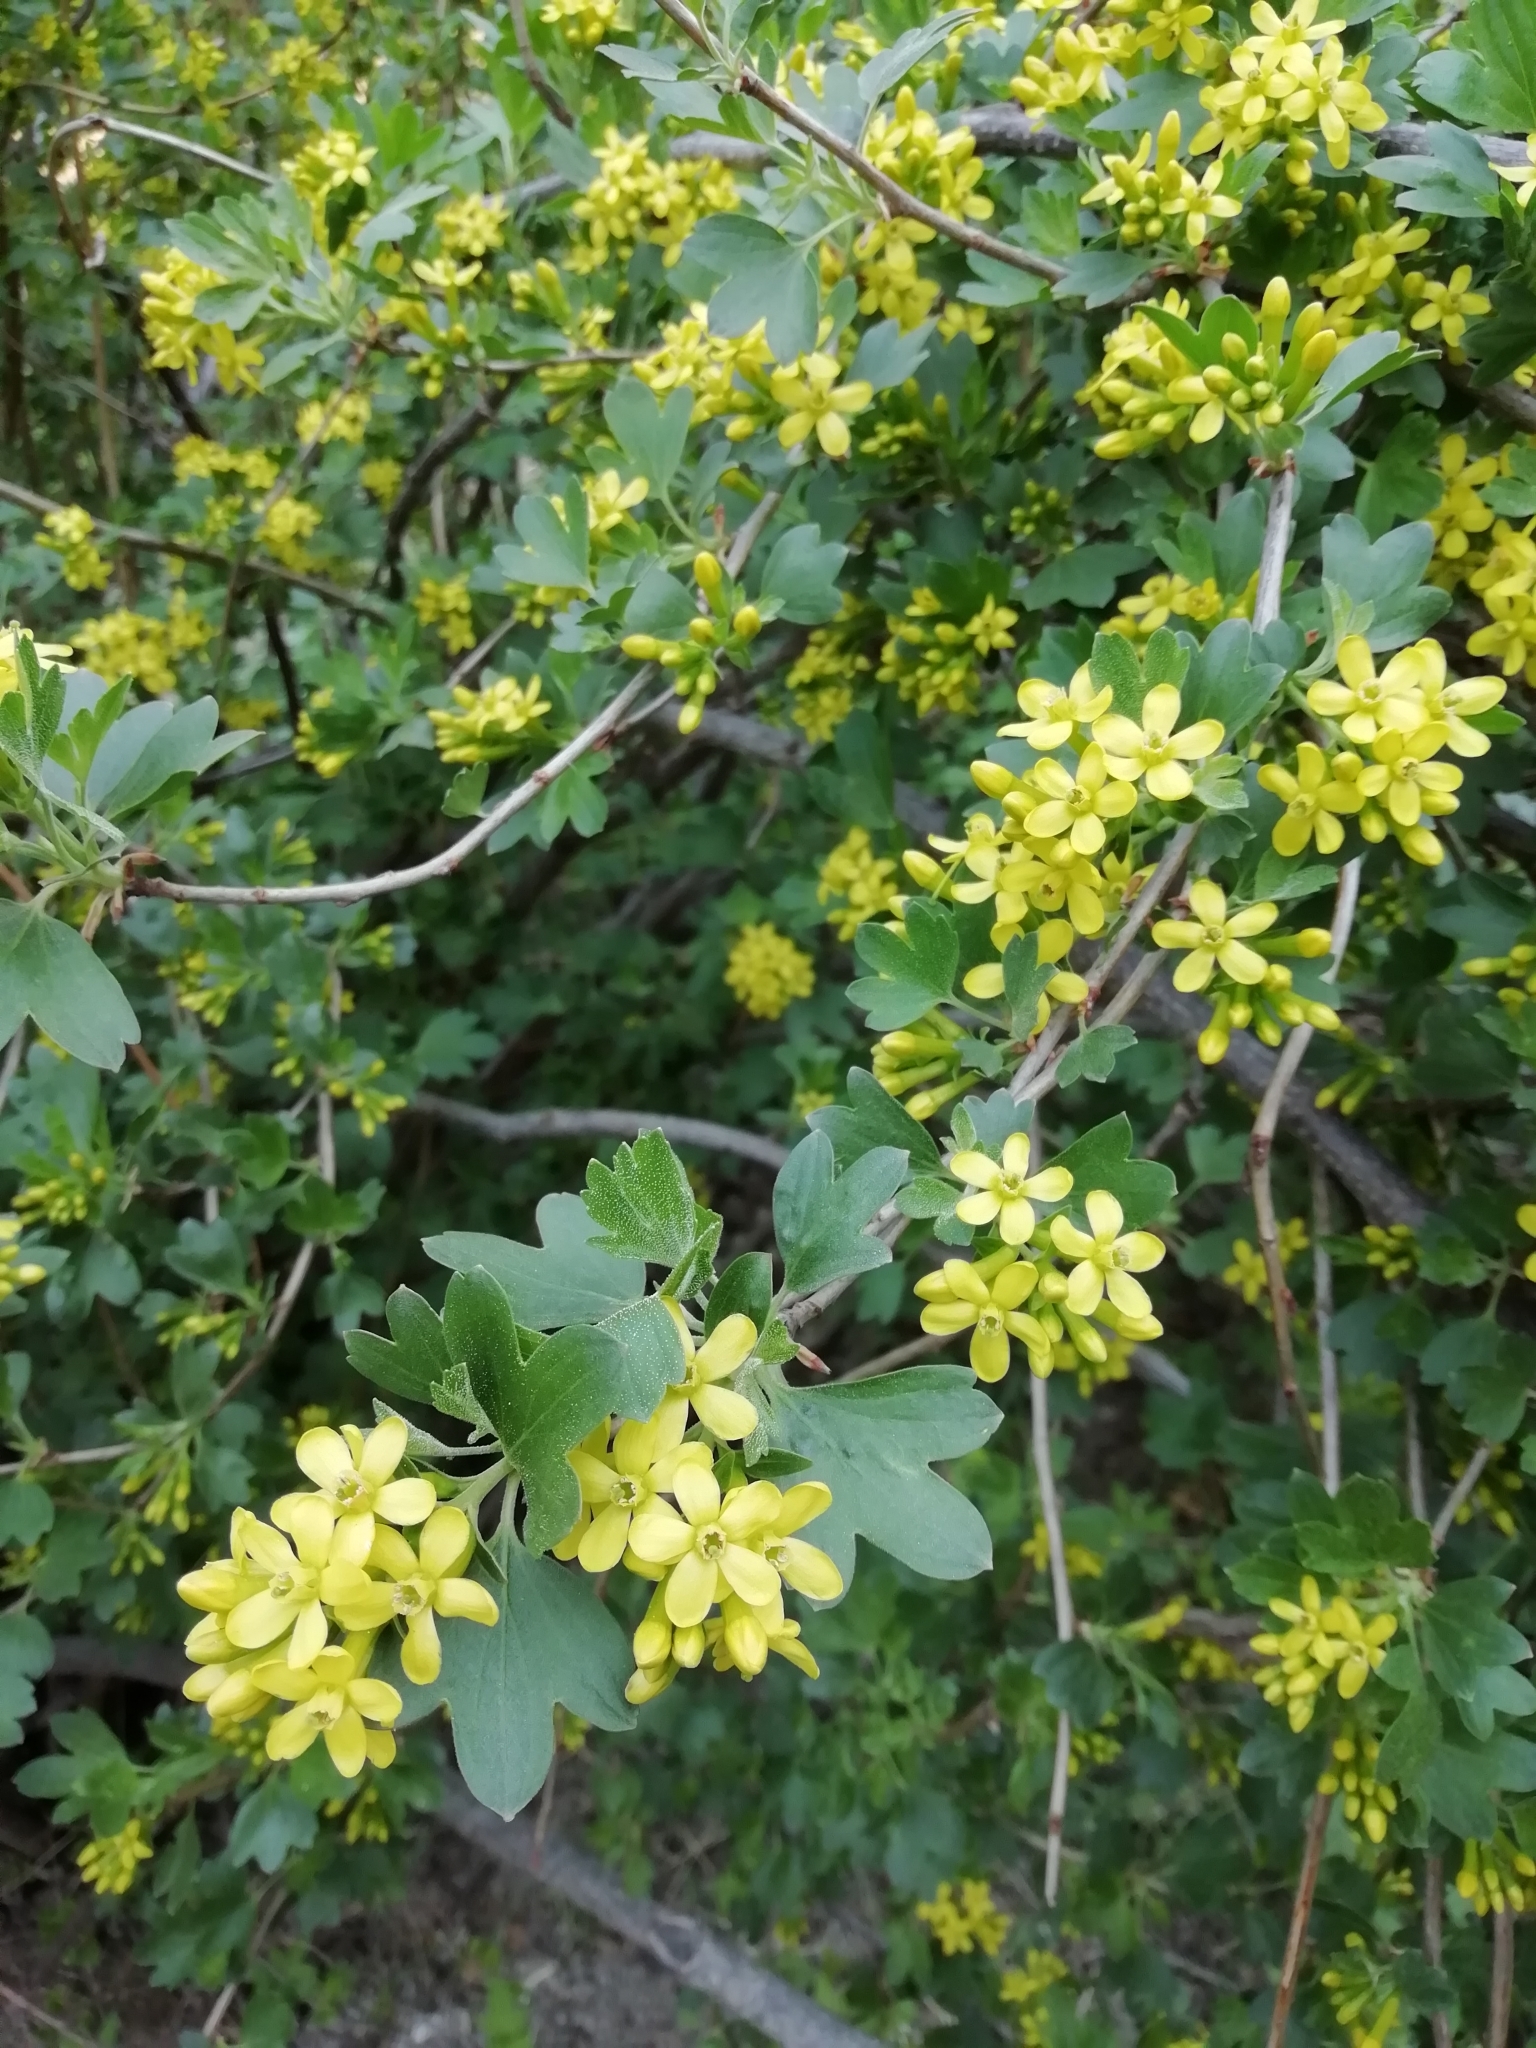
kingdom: Plantae
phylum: Tracheophyta
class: Magnoliopsida
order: Saxifragales
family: Grossulariaceae
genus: Ribes
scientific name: Ribes aureum
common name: Golden currant
